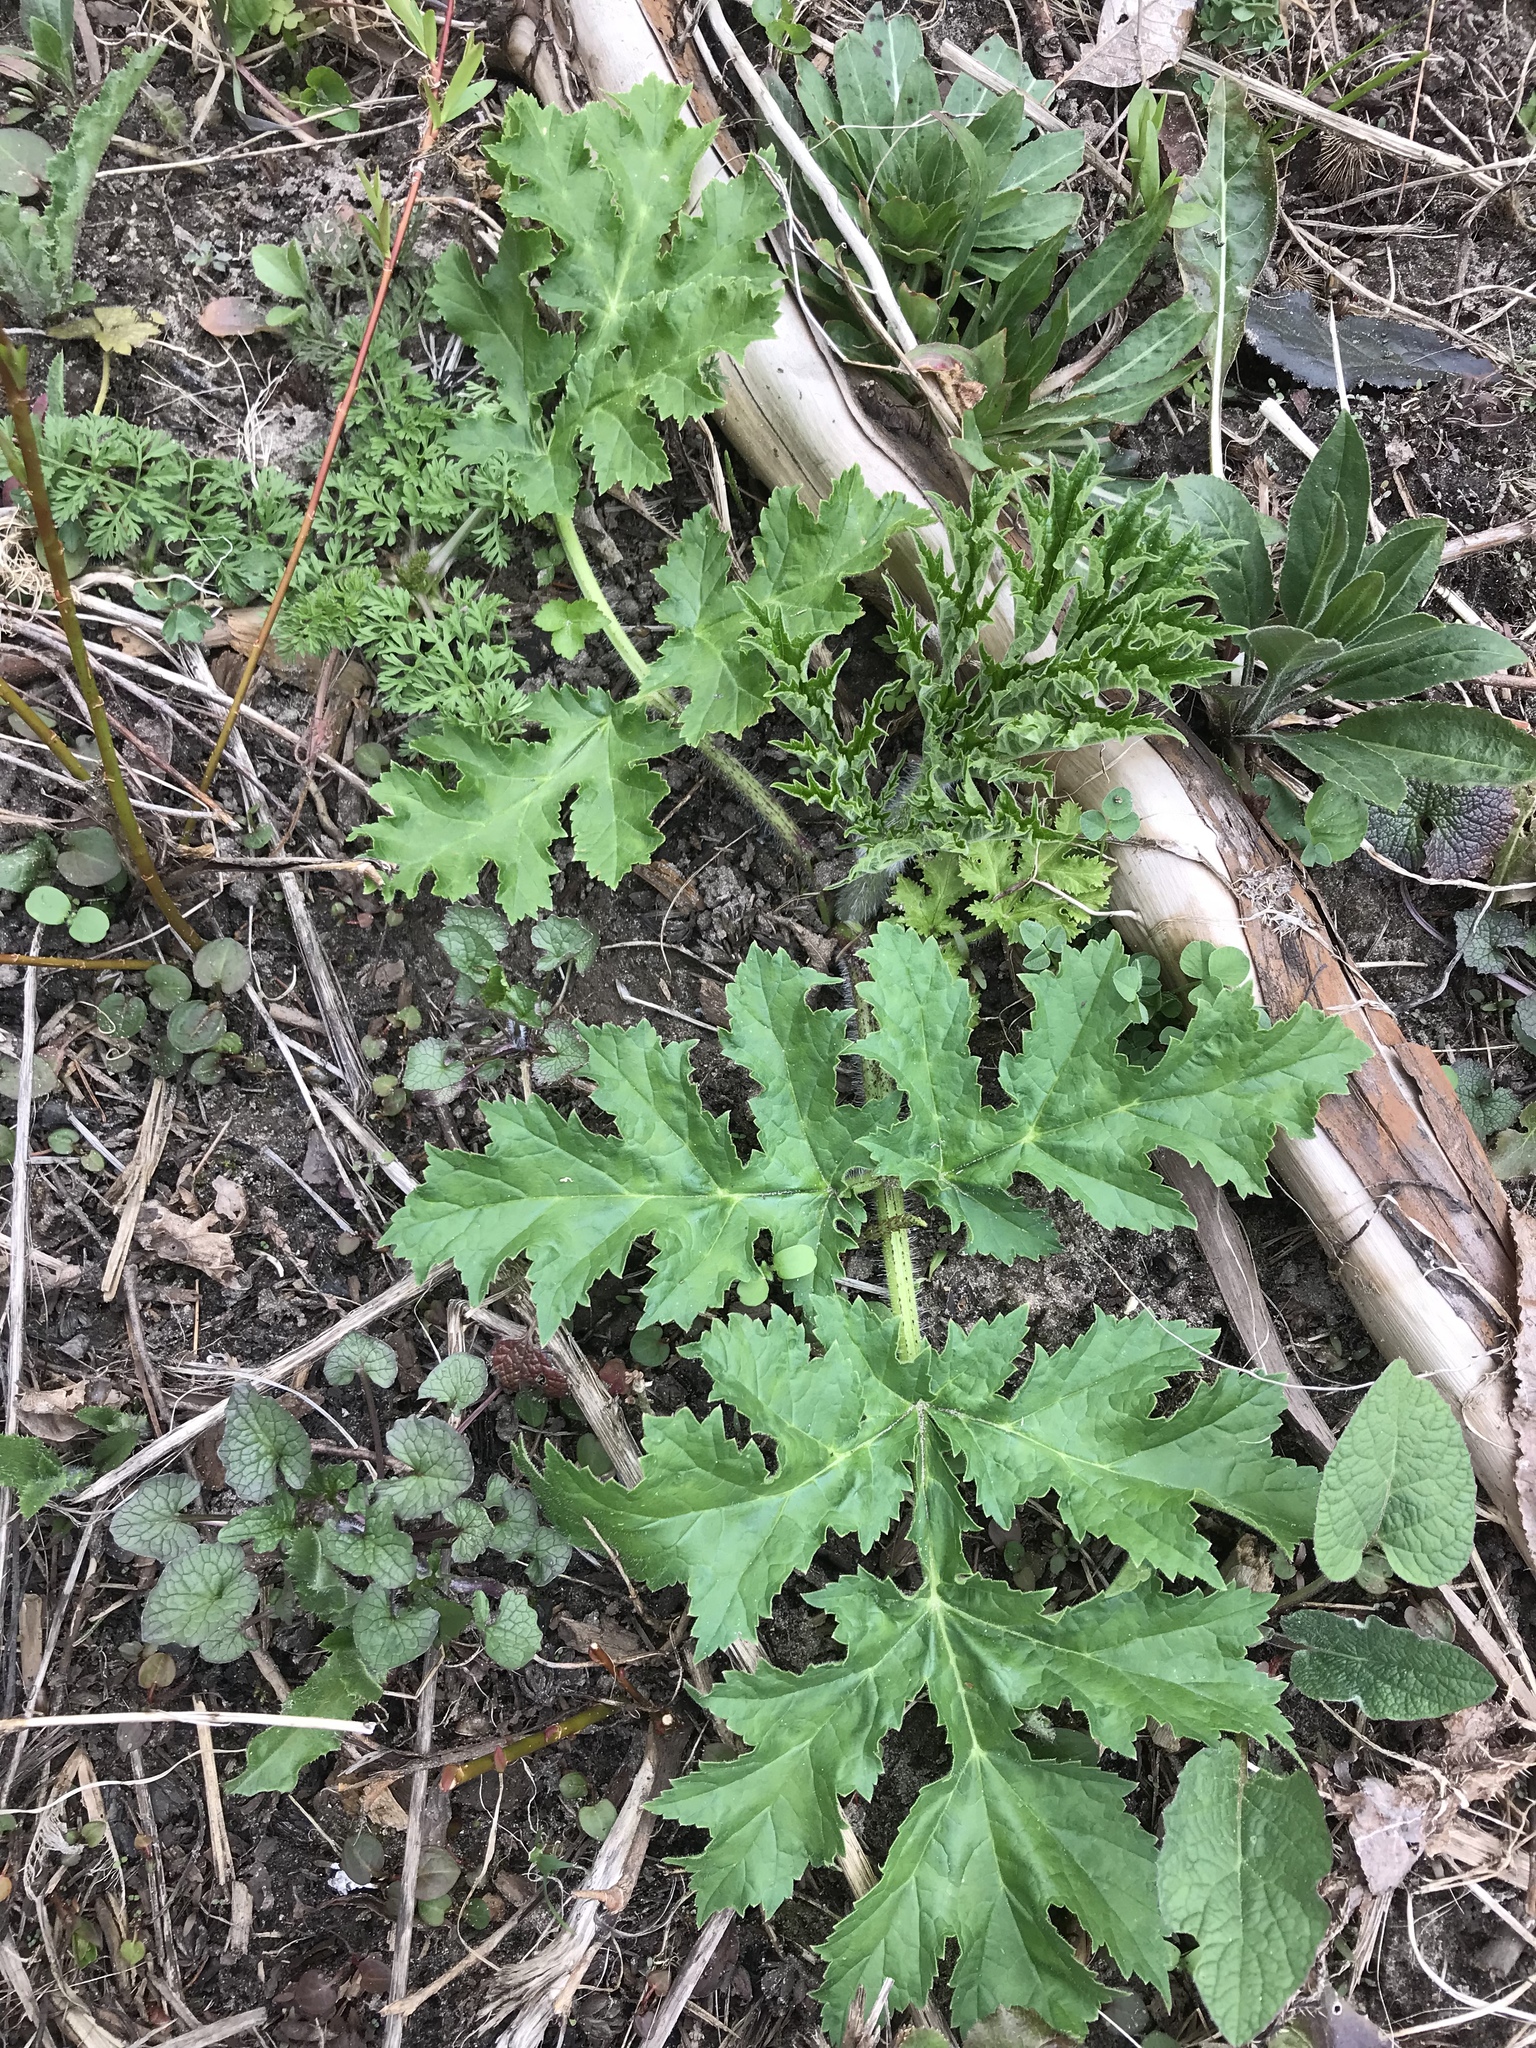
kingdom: Plantae
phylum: Tracheophyta
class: Magnoliopsida
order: Apiales
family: Apiaceae
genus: Heracleum
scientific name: Heracleum mantegazzianum
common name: Giant hogweed
